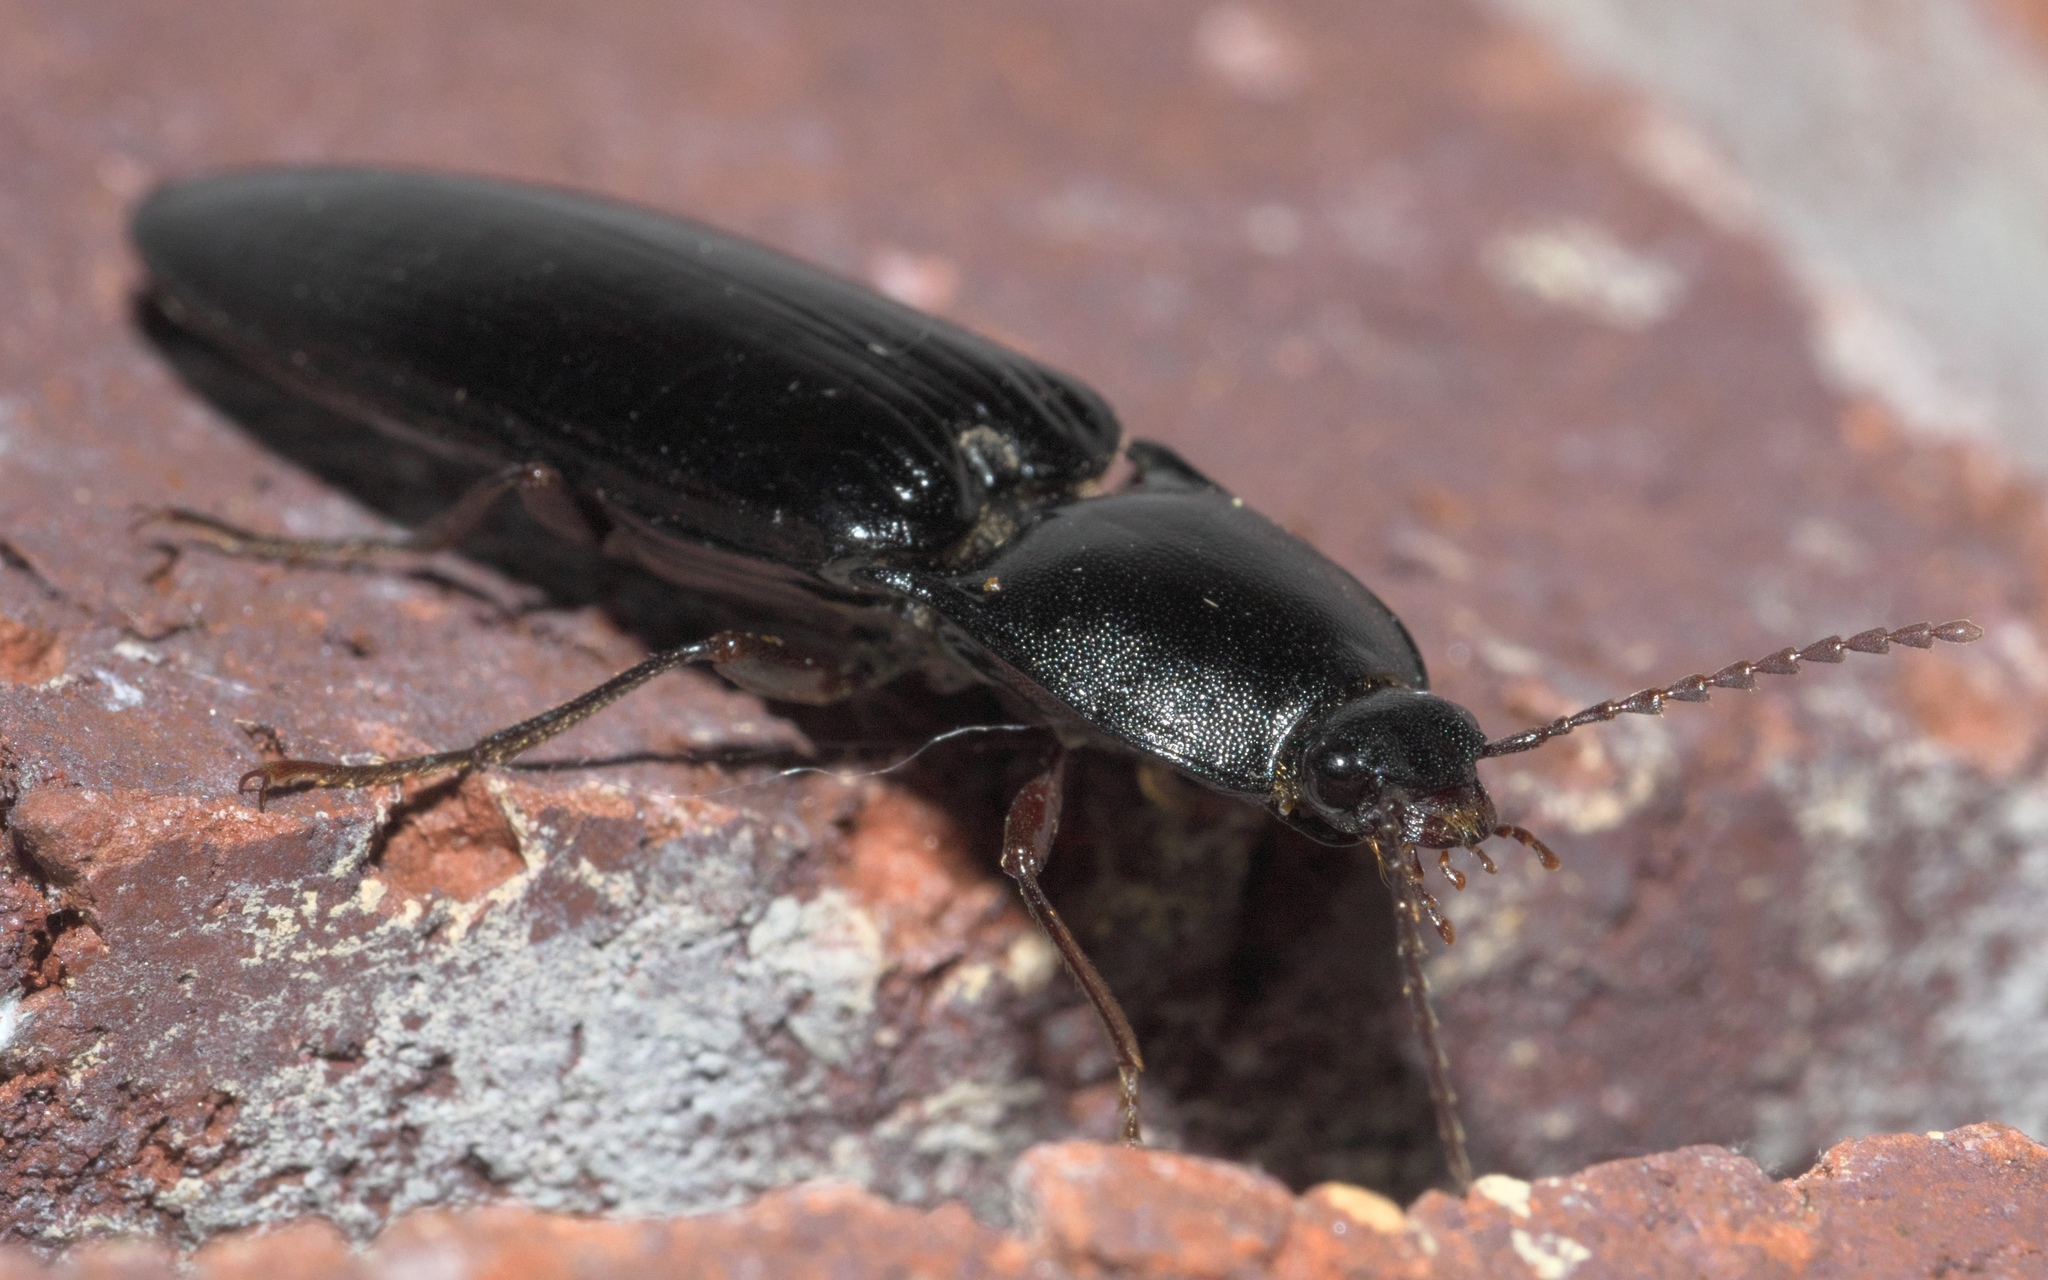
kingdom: Animalia
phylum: Arthropoda
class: Insecta
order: Coleoptera
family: Elateridae
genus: Melanactes
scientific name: Melanactes
